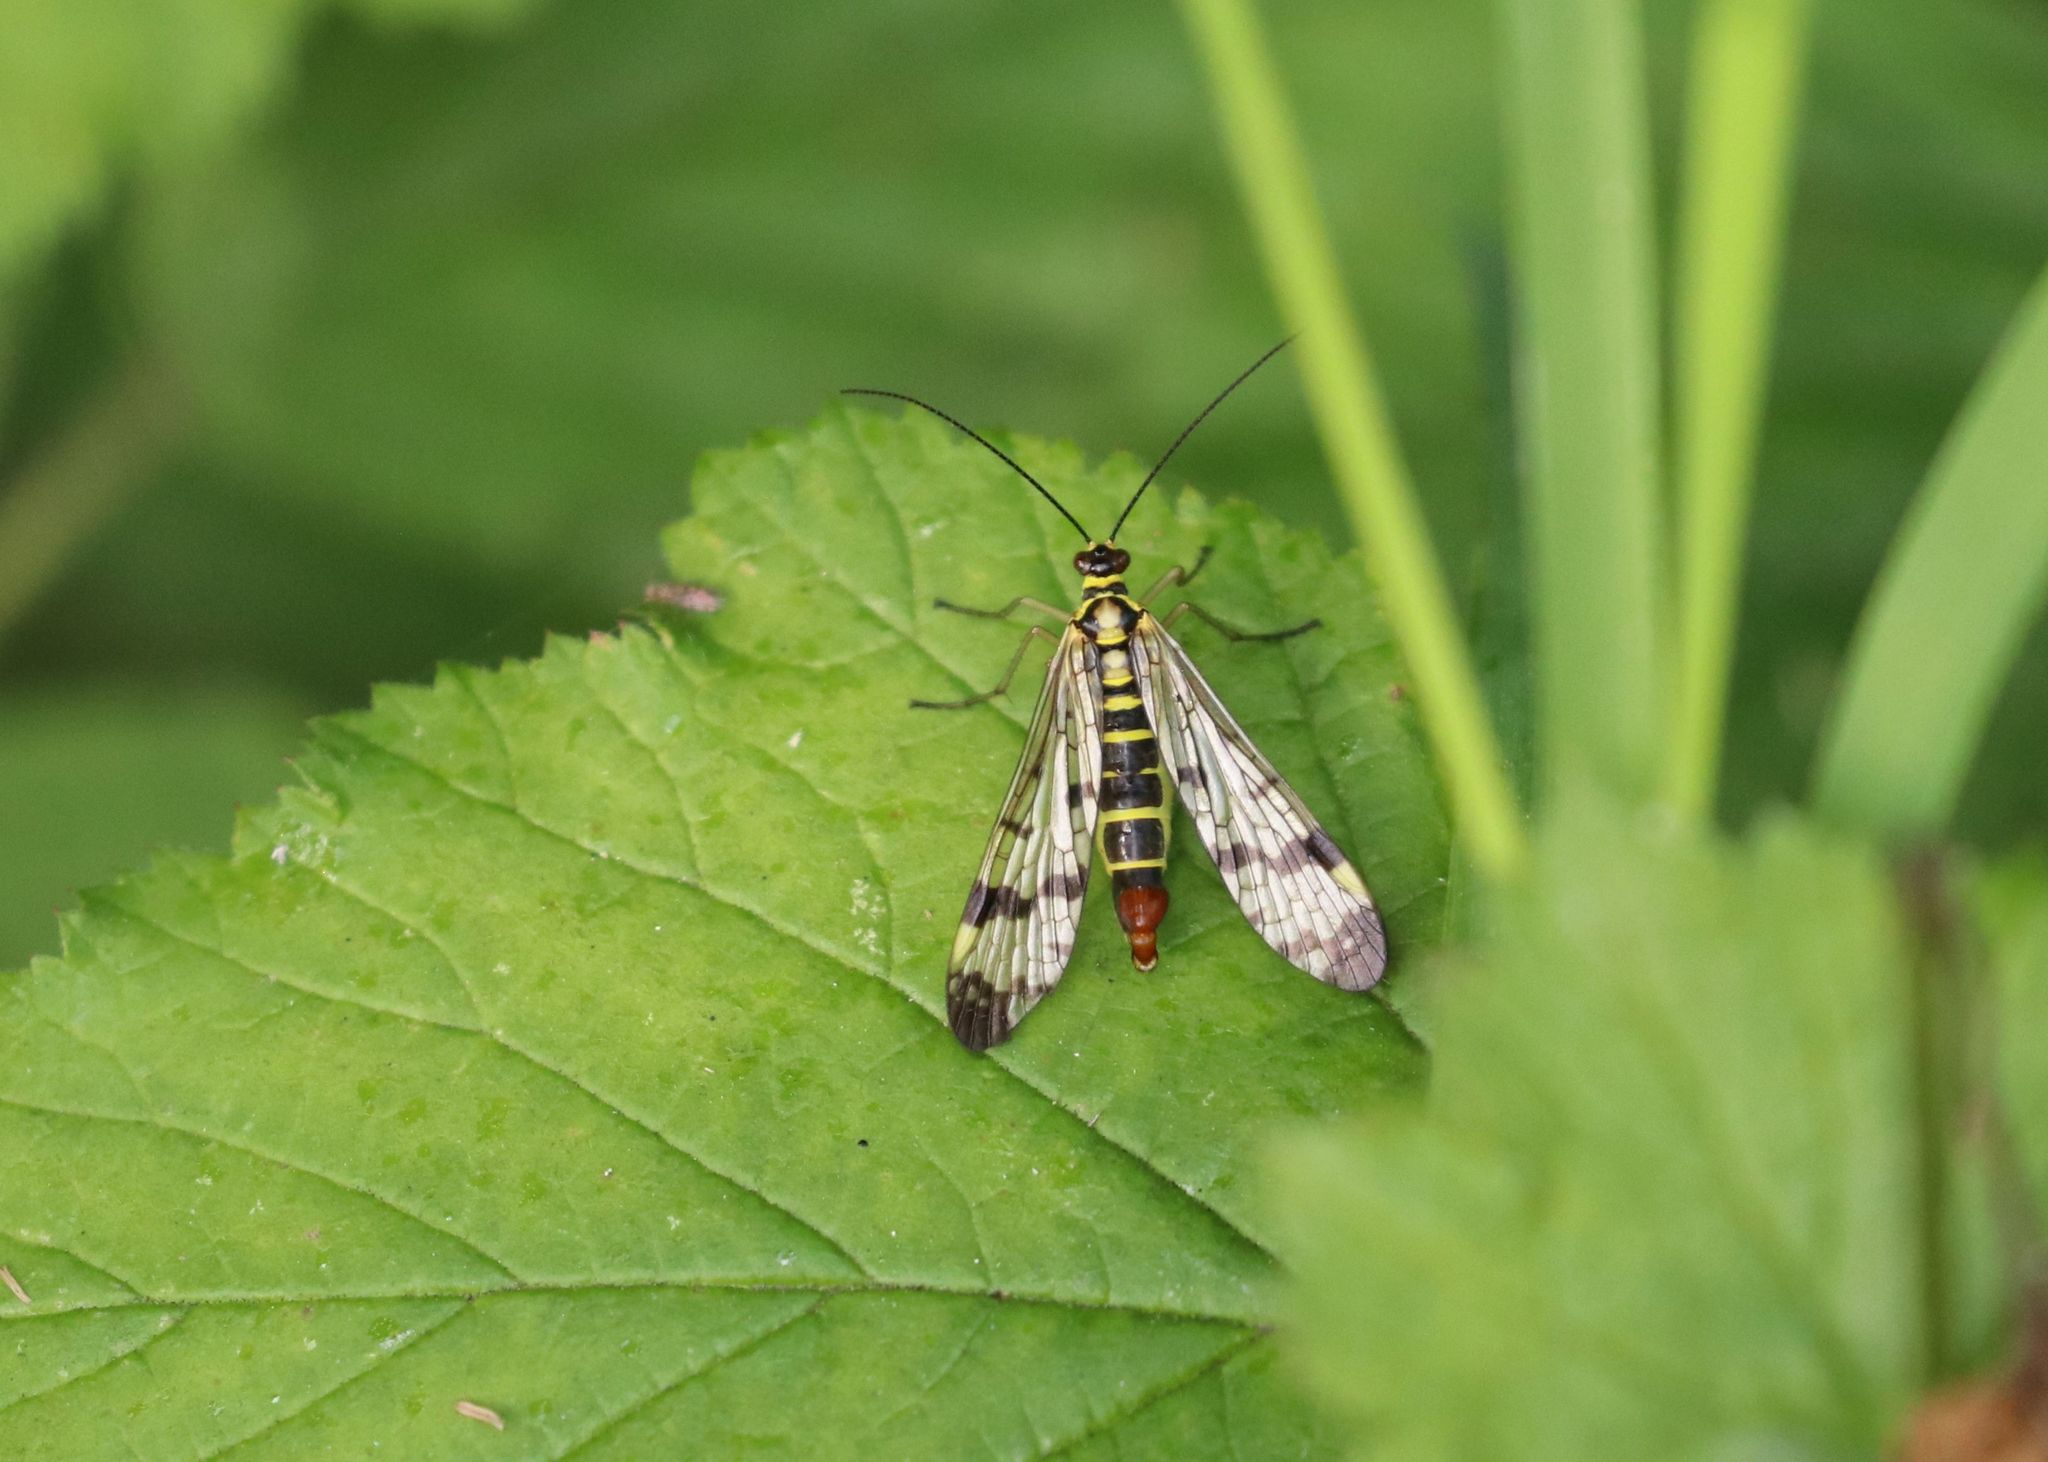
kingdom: Animalia
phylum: Arthropoda
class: Insecta
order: Mecoptera
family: Panorpidae
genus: Panorpa
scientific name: Panorpa communis
